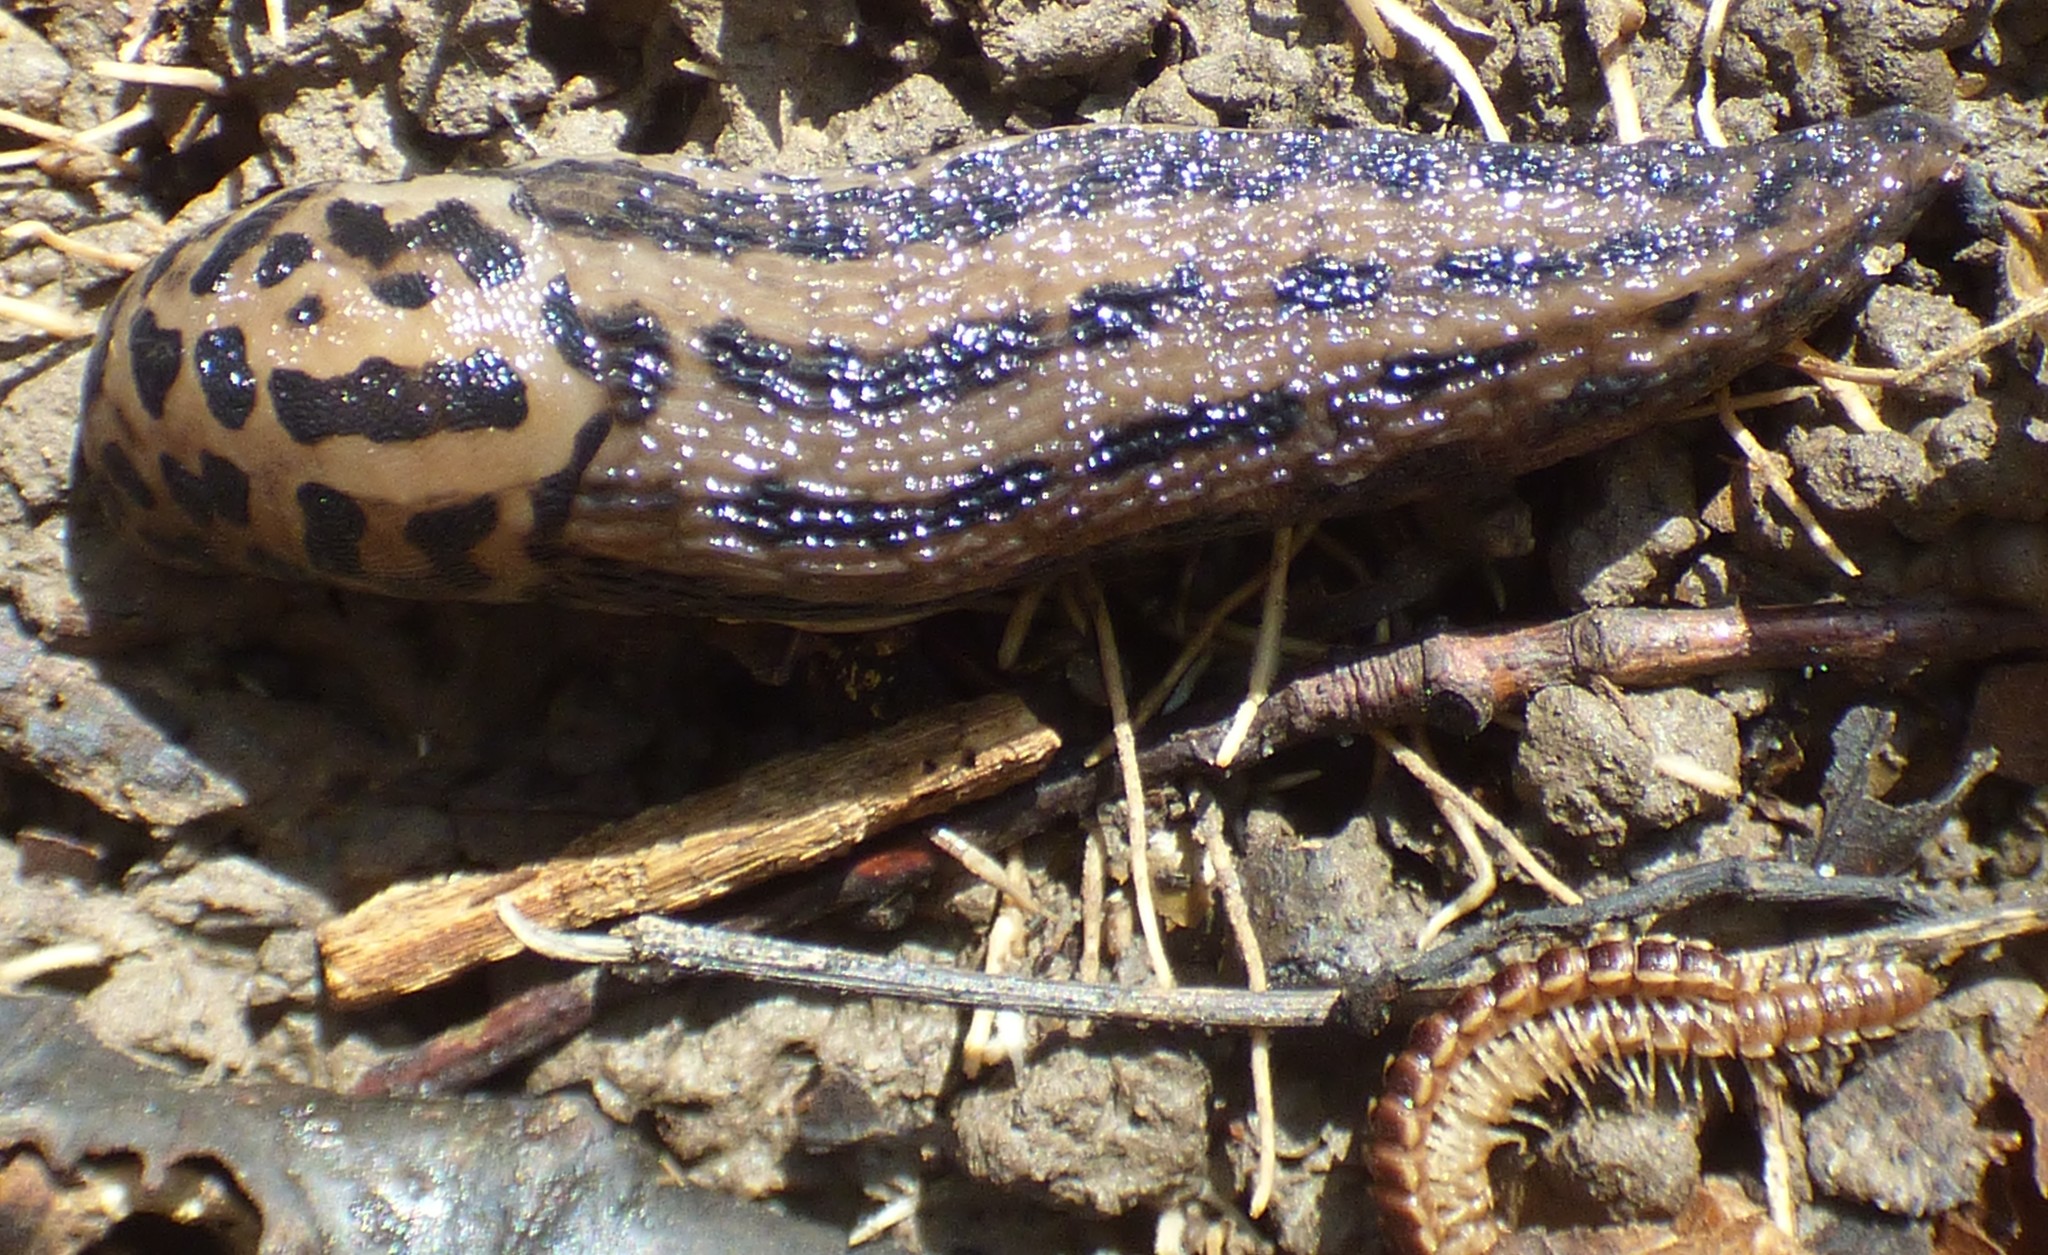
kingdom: Animalia
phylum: Mollusca
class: Gastropoda
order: Stylommatophora
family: Limacidae
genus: Limax
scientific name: Limax maximus
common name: Great grey slug
